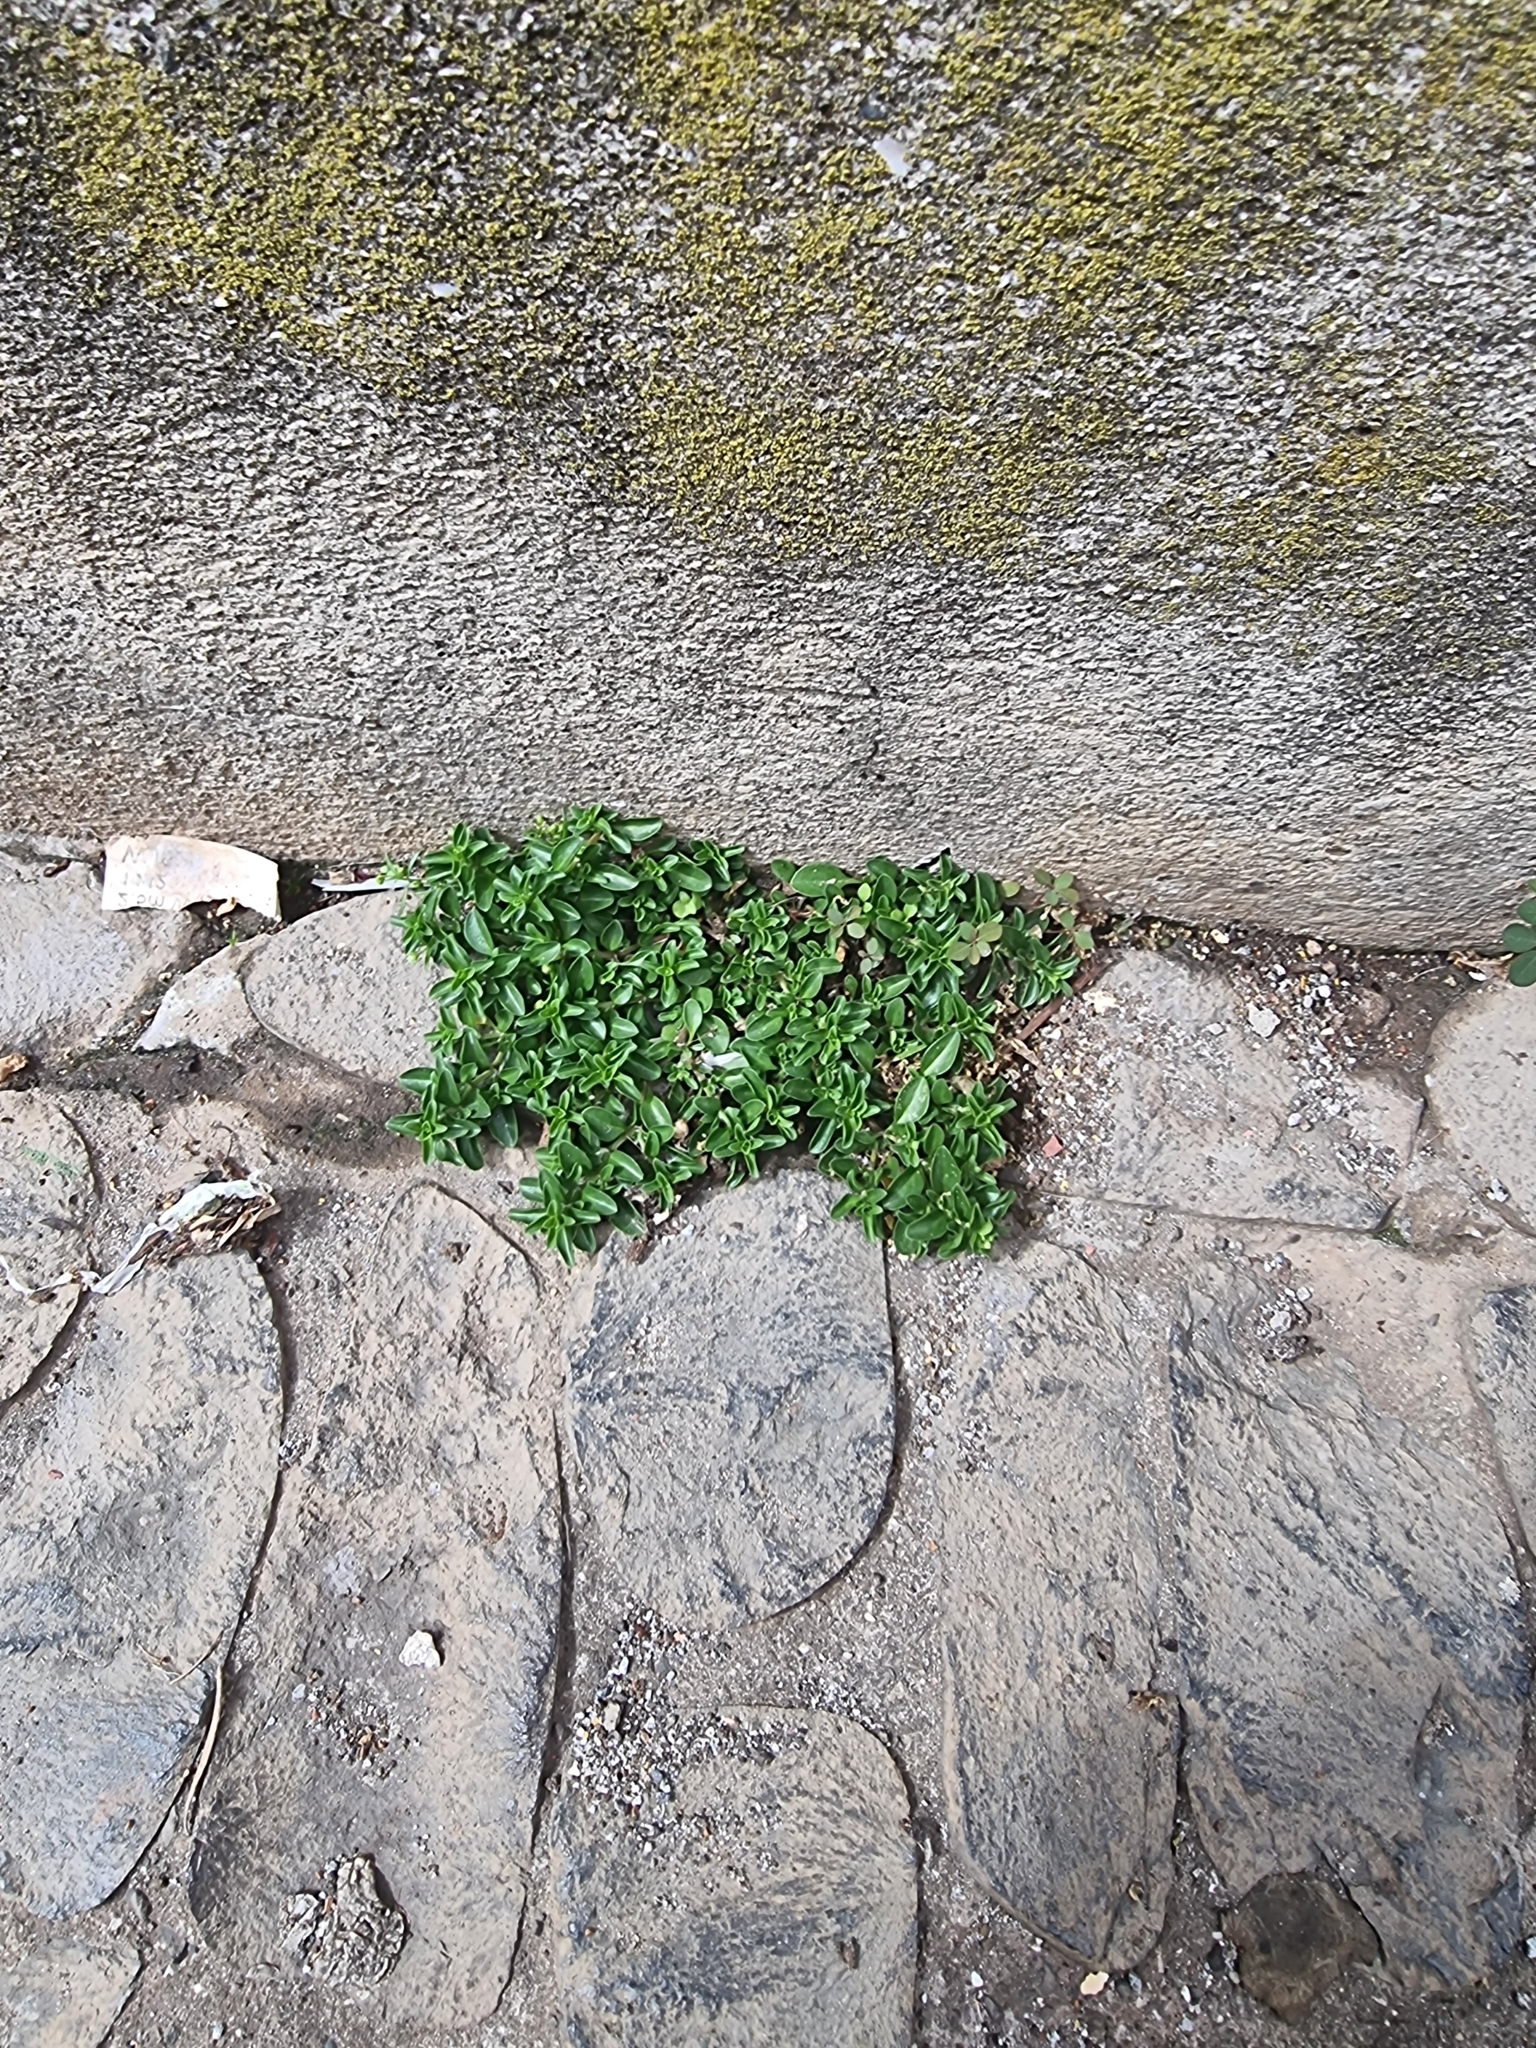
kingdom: Plantae
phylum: Tracheophyta
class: Magnoliopsida
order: Caryophyllales
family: Caryophyllaceae
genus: Polycarpon
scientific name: Polycarpon tetraphyllum
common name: Four-leaved all-seed
